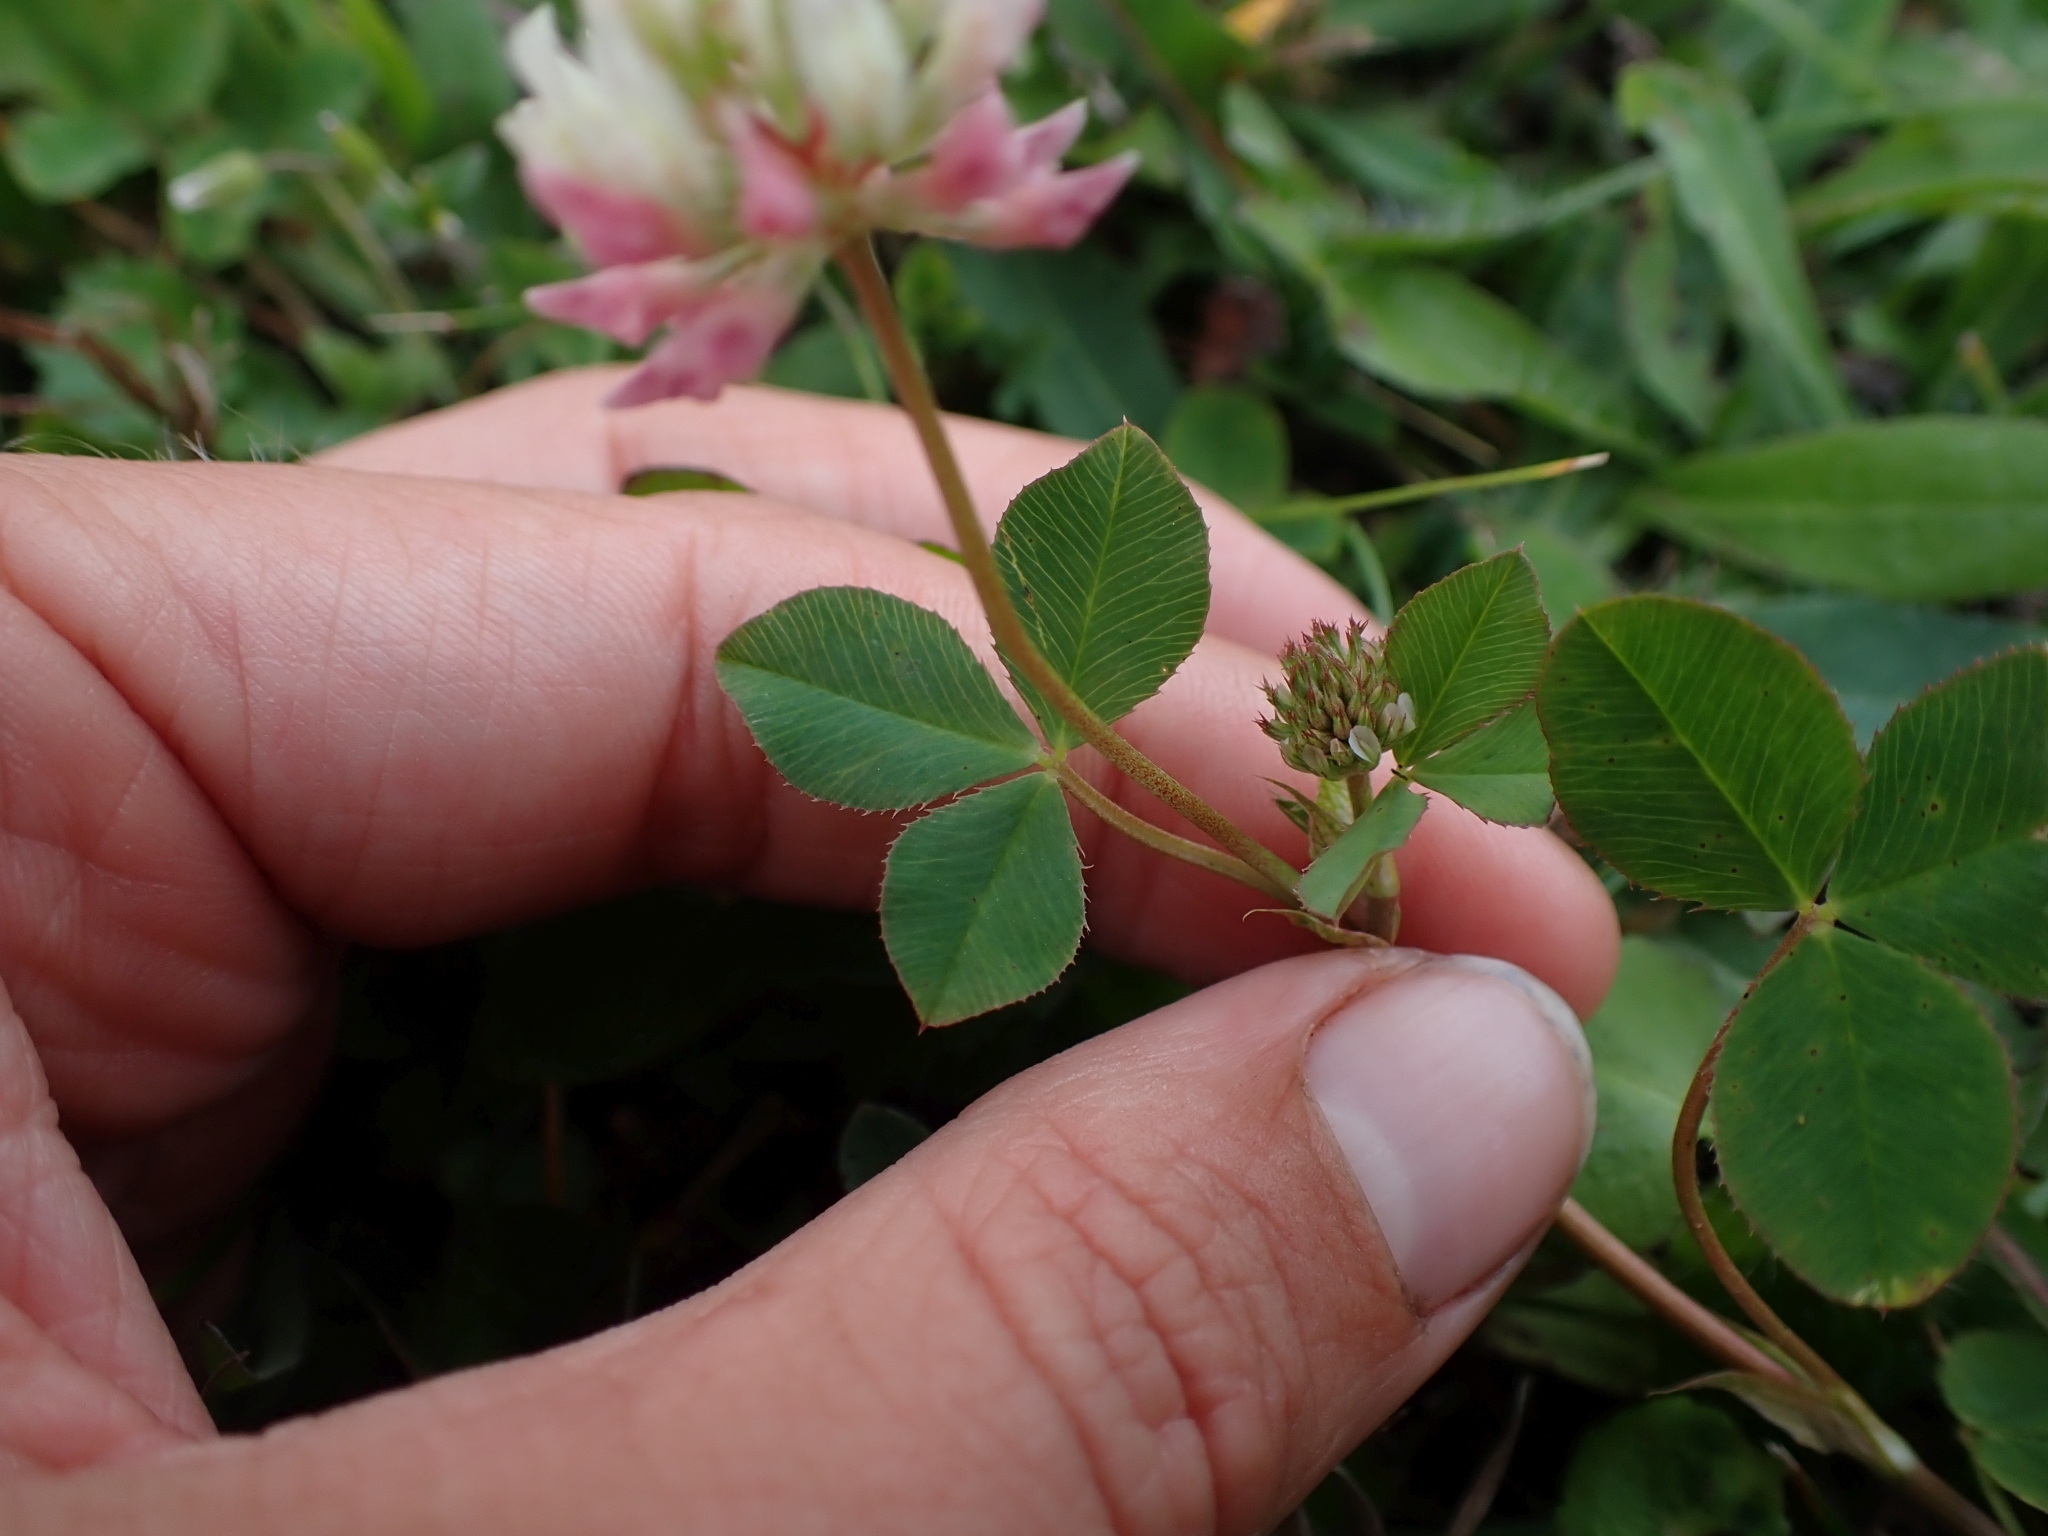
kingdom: Plantae
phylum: Tracheophyta
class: Magnoliopsida
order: Fabales
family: Fabaceae
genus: Trifolium
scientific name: Trifolium hybridum
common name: Alsike clover
